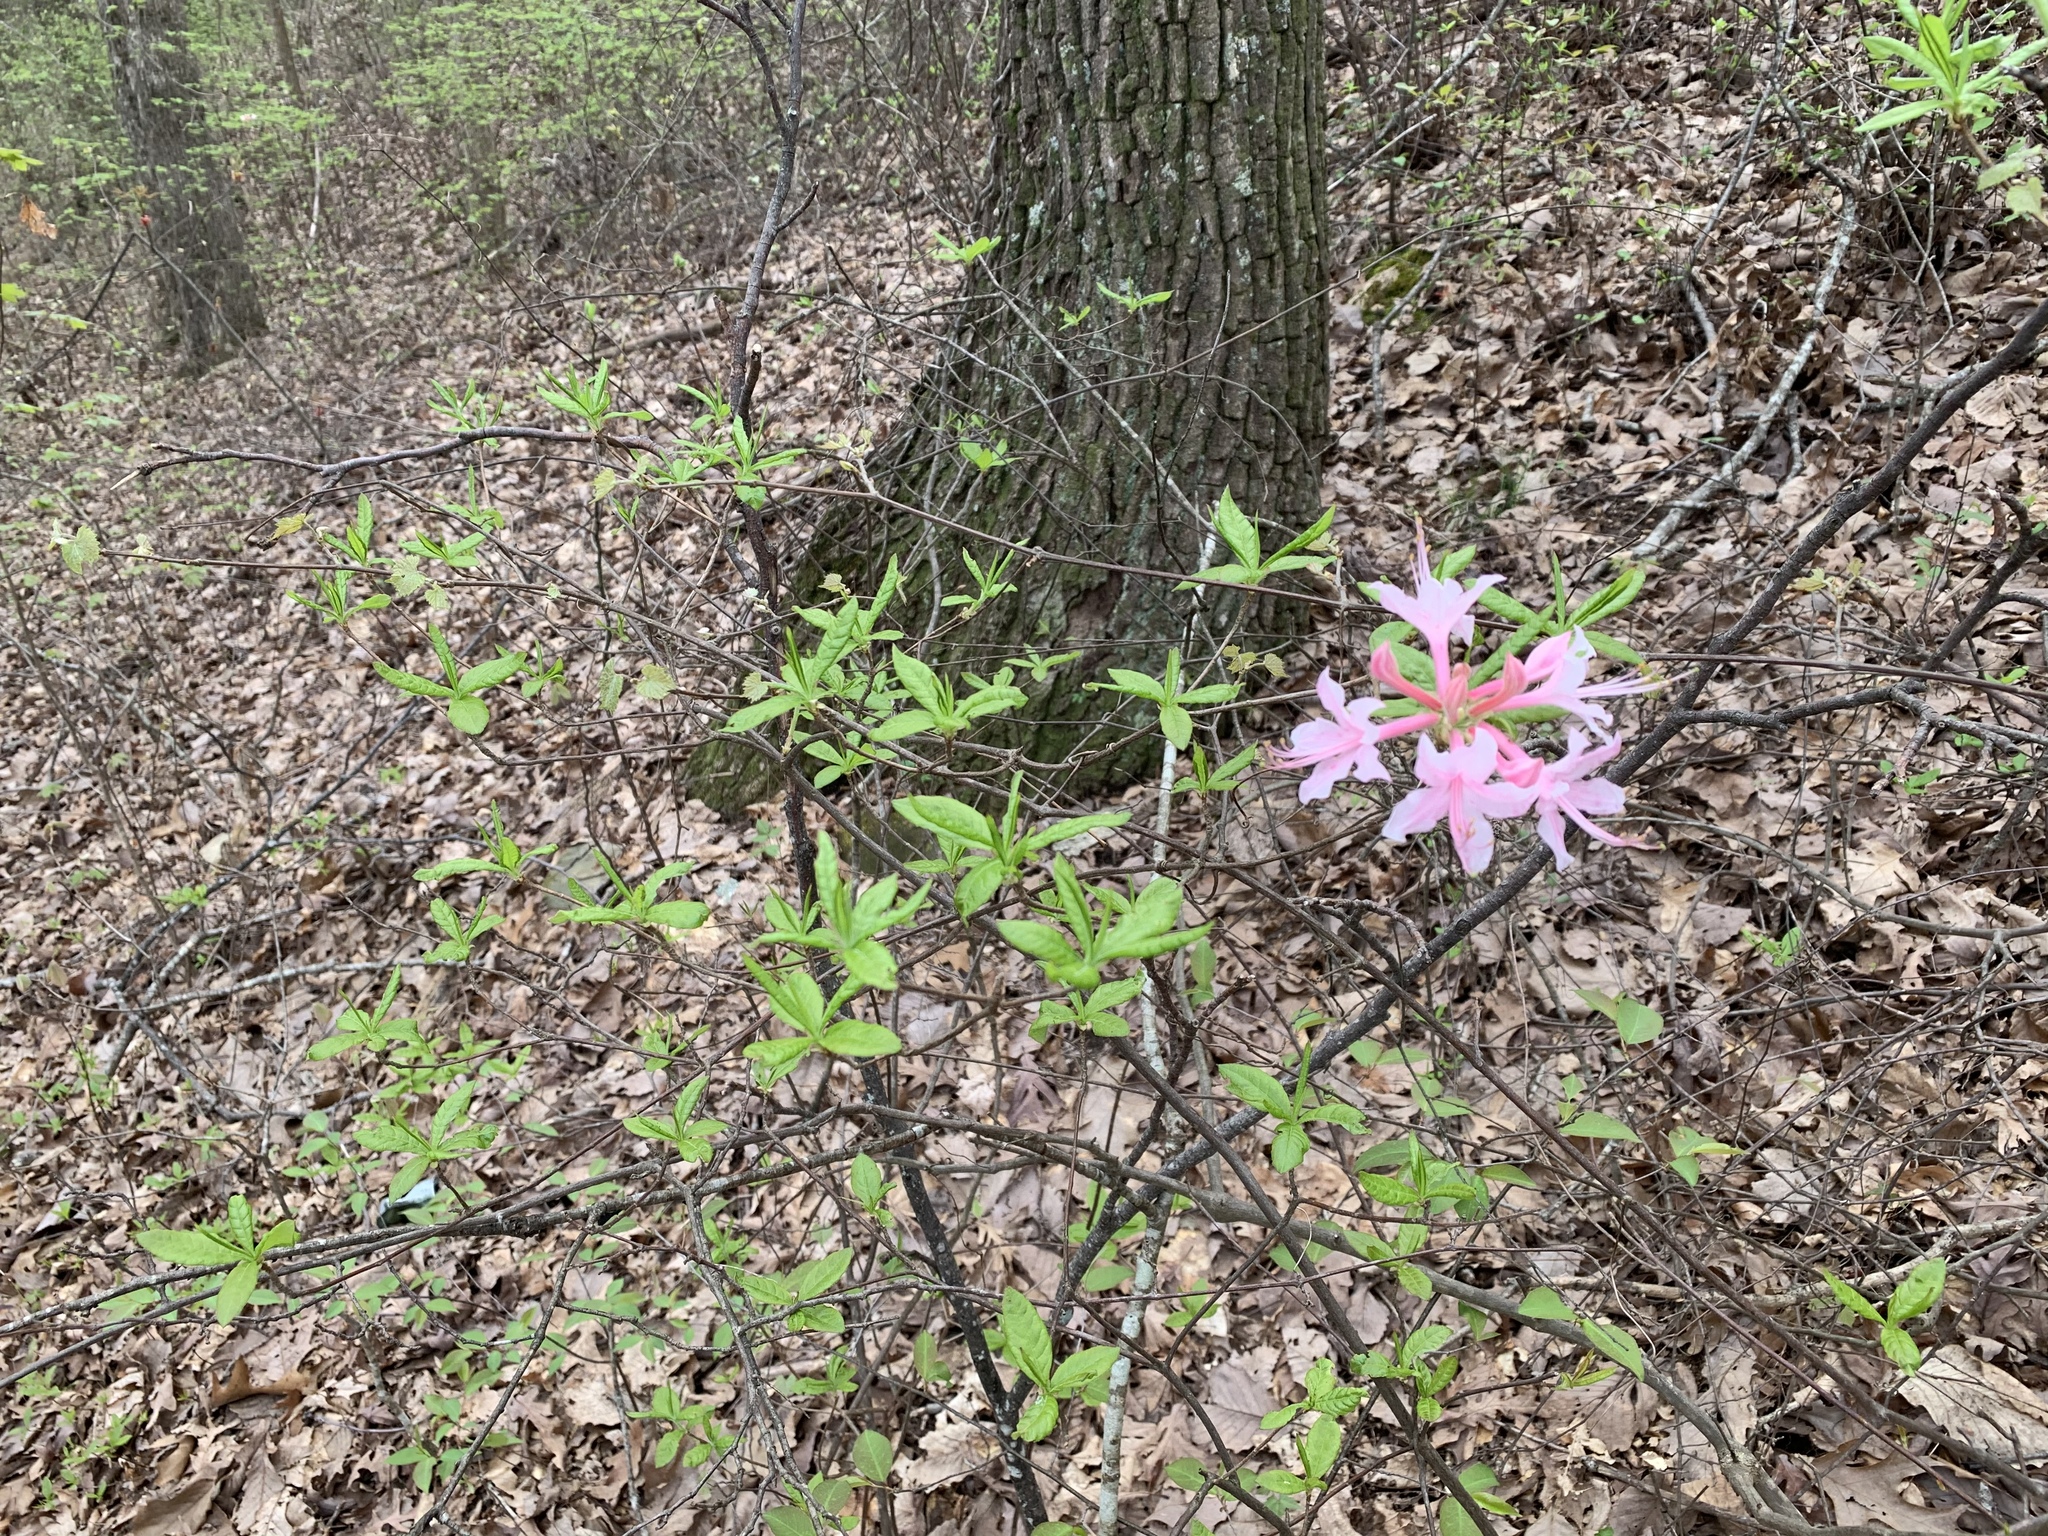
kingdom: Plantae
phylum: Tracheophyta
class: Magnoliopsida
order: Ericales
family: Ericaceae
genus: Rhododendron
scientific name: Rhododendron canescens
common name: Mountain azalea
